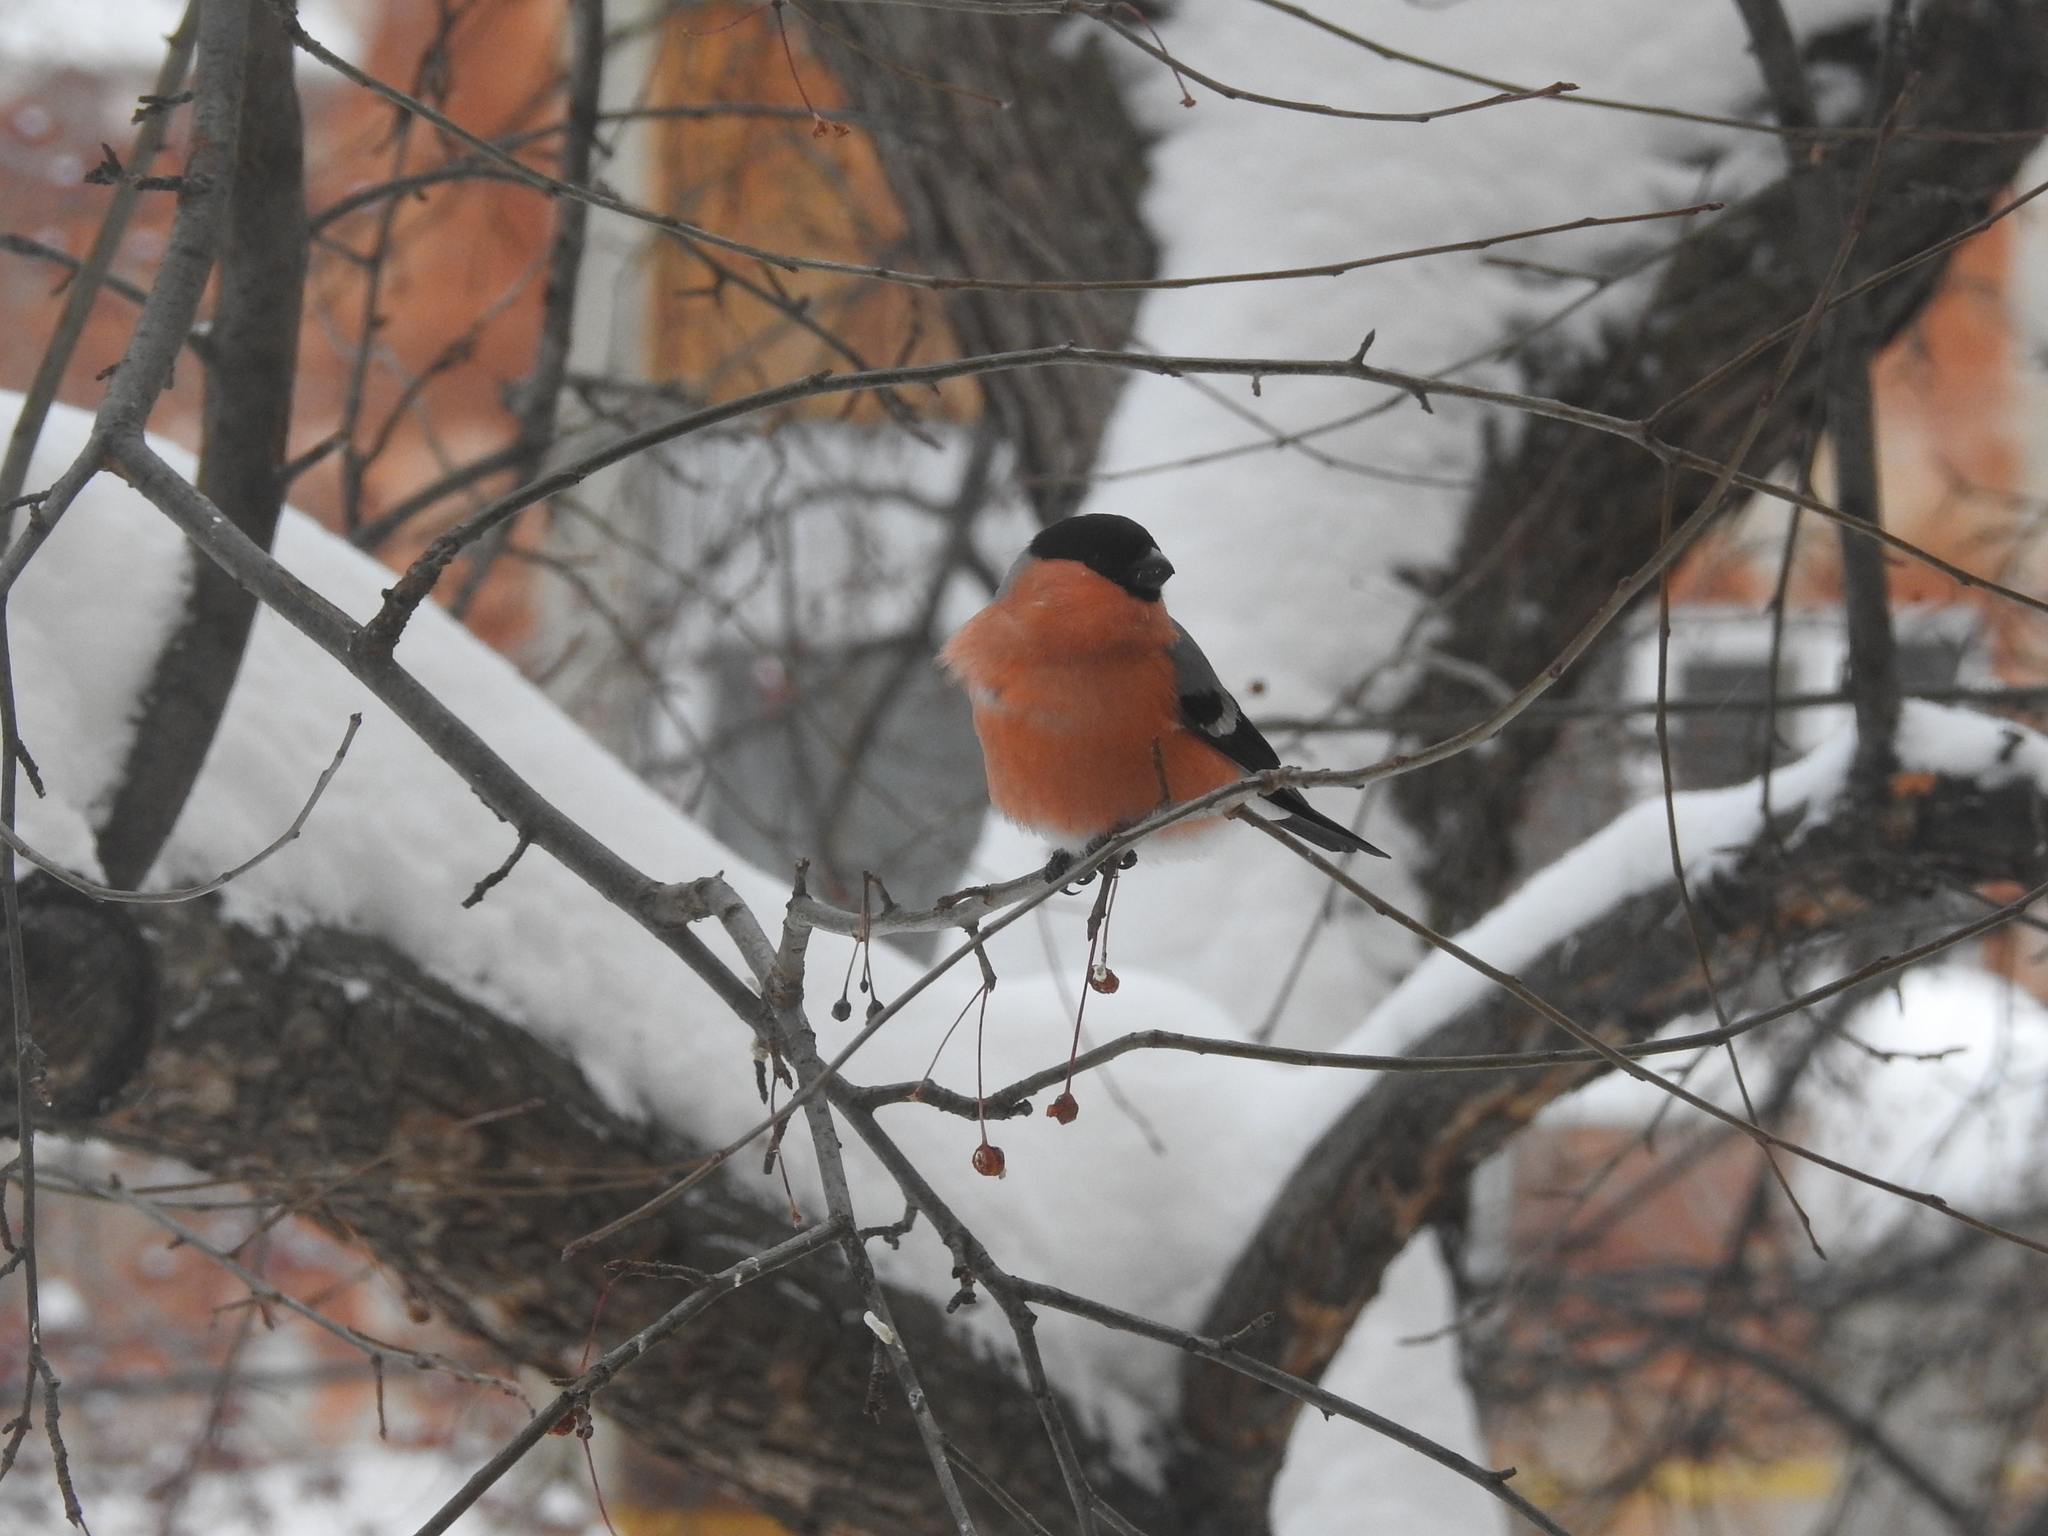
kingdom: Animalia
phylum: Chordata
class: Aves
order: Passeriformes
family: Fringillidae
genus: Pyrrhula
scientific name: Pyrrhula pyrrhula
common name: Eurasian bullfinch
